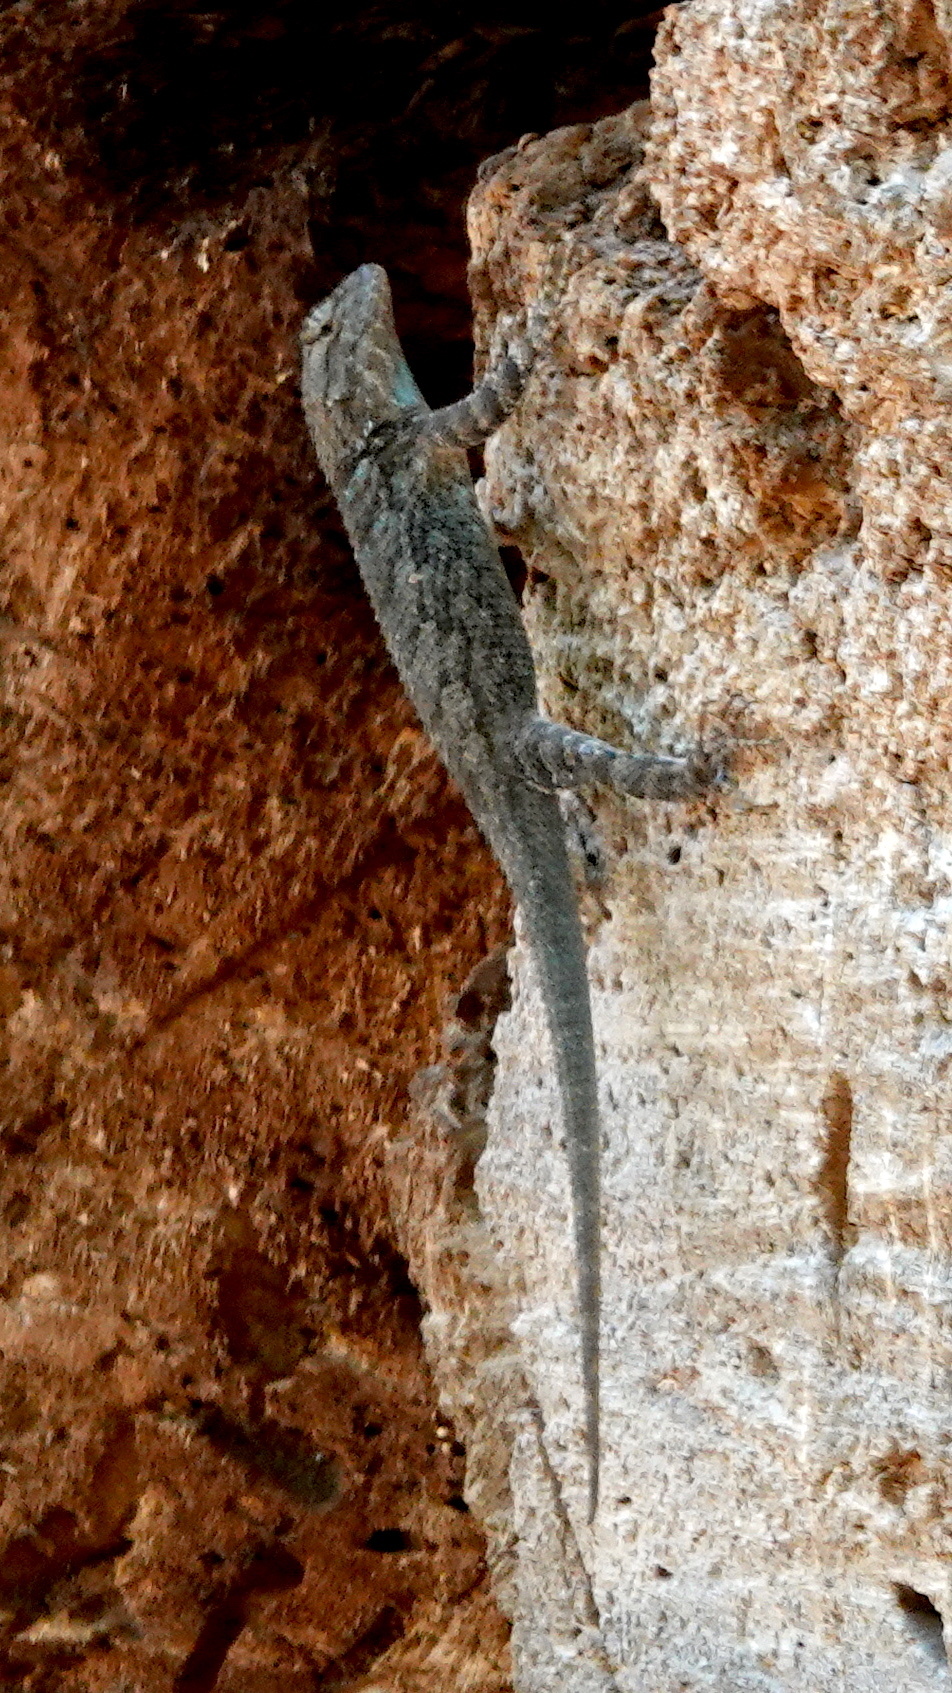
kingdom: Animalia
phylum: Chordata
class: Squamata
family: Phrynosomatidae
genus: Sceloporus
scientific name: Sceloporus clarkii
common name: Clark's spiny lizard
